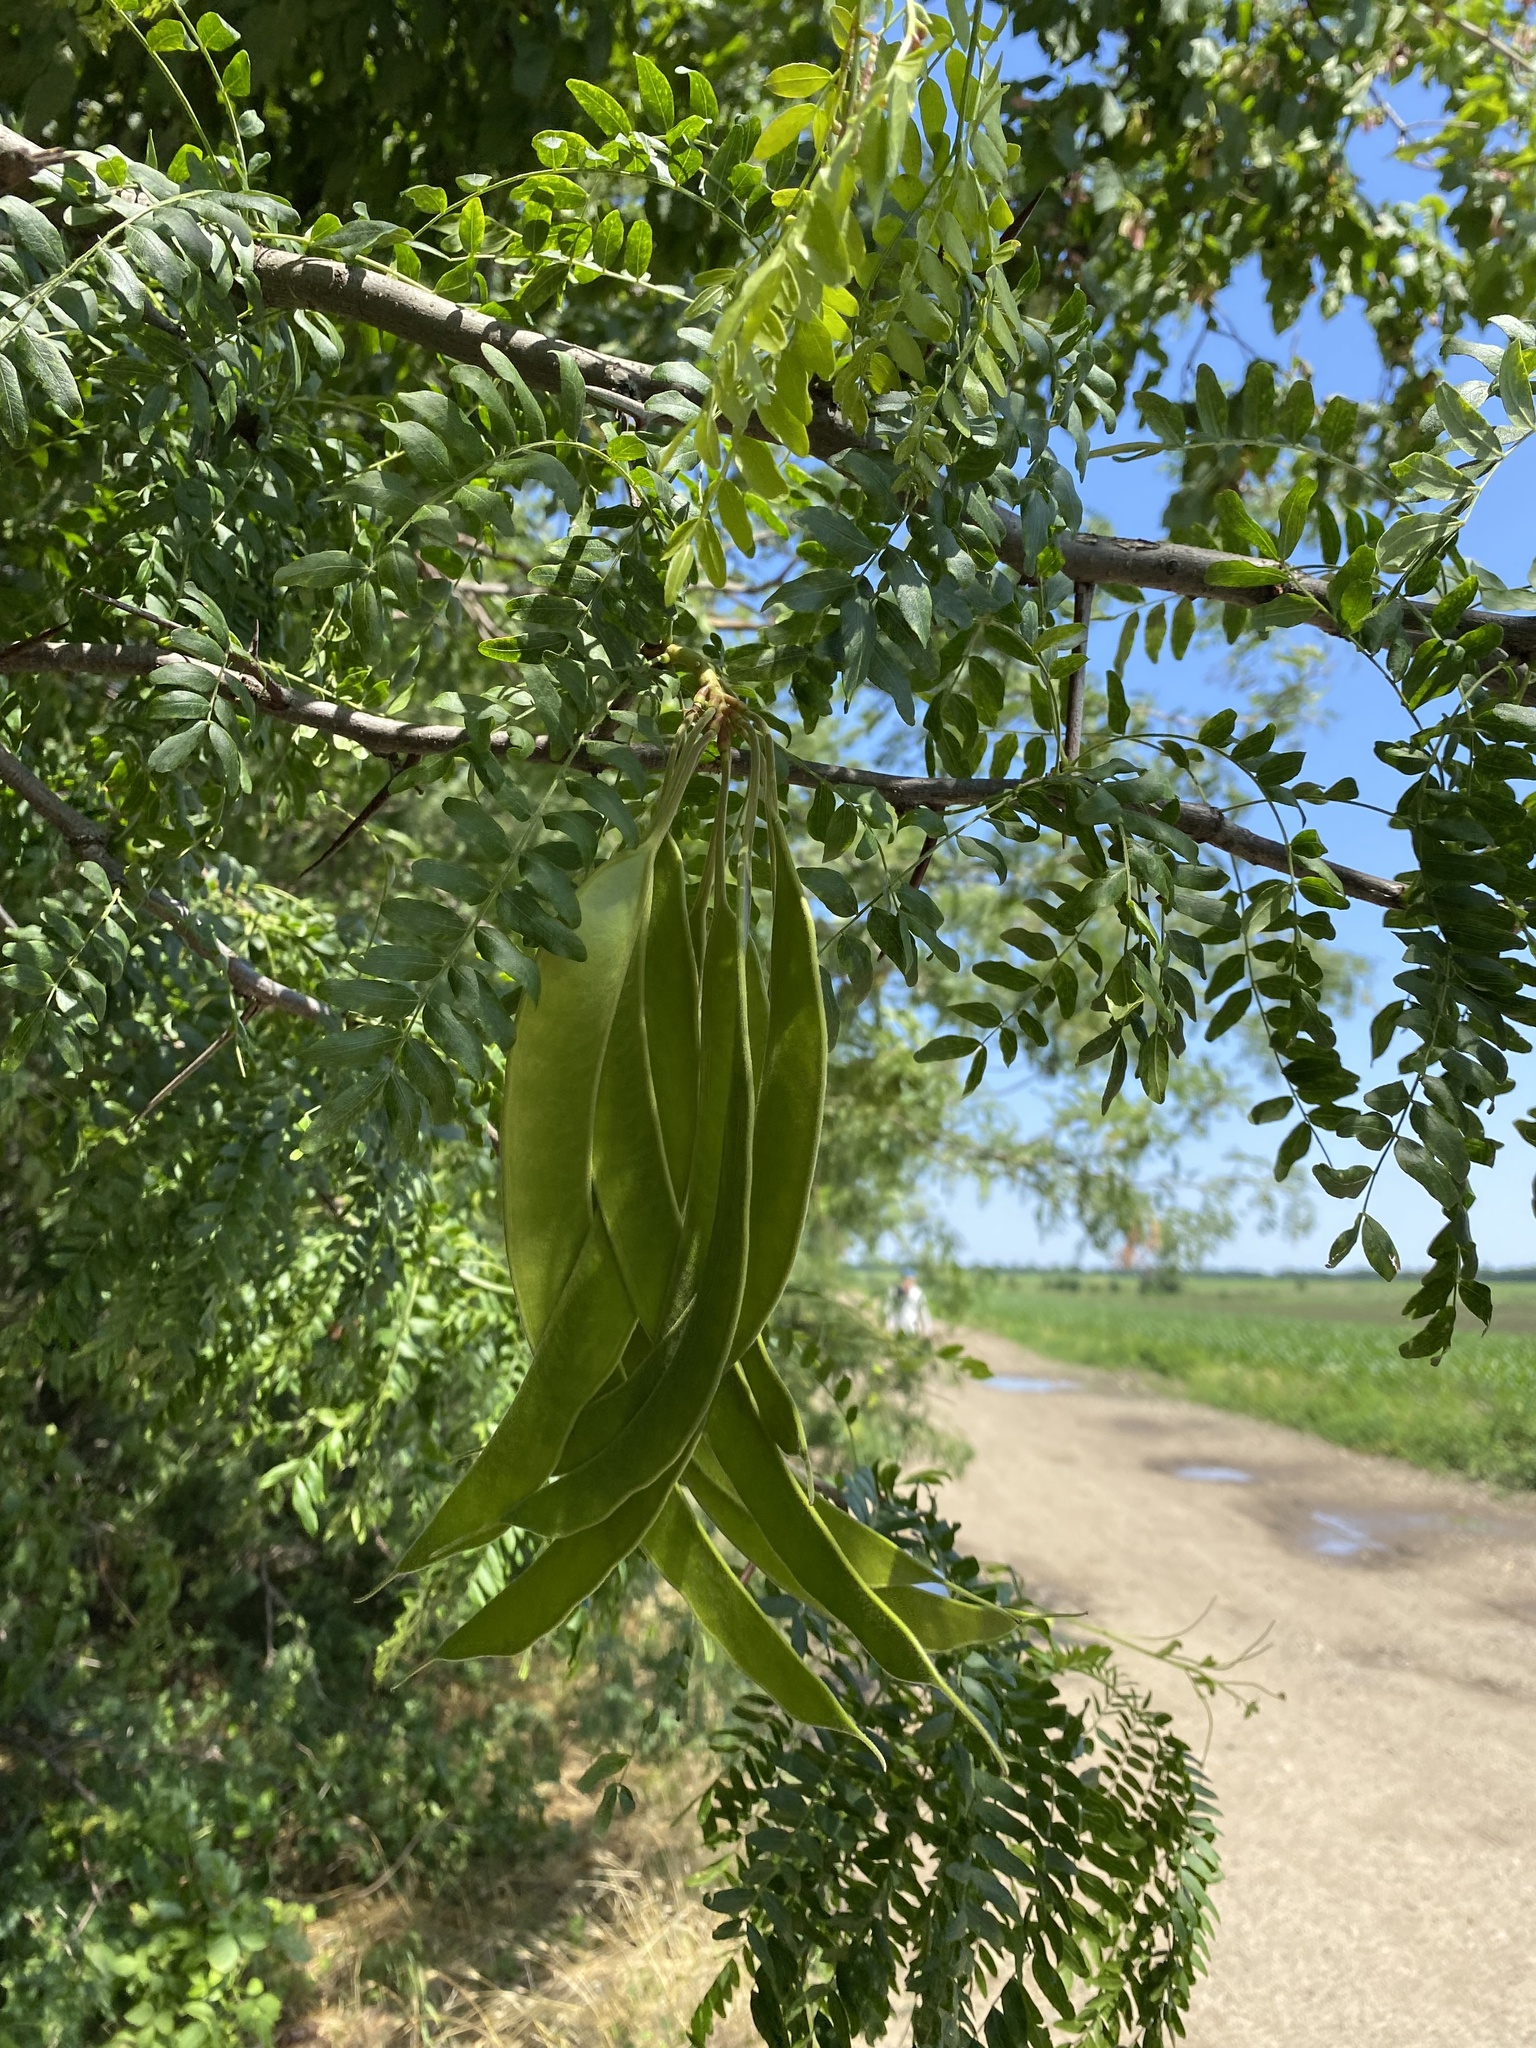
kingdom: Plantae
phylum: Tracheophyta
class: Magnoliopsida
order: Fabales
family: Fabaceae
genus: Gleditsia
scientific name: Gleditsia triacanthos
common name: Common honeylocust
